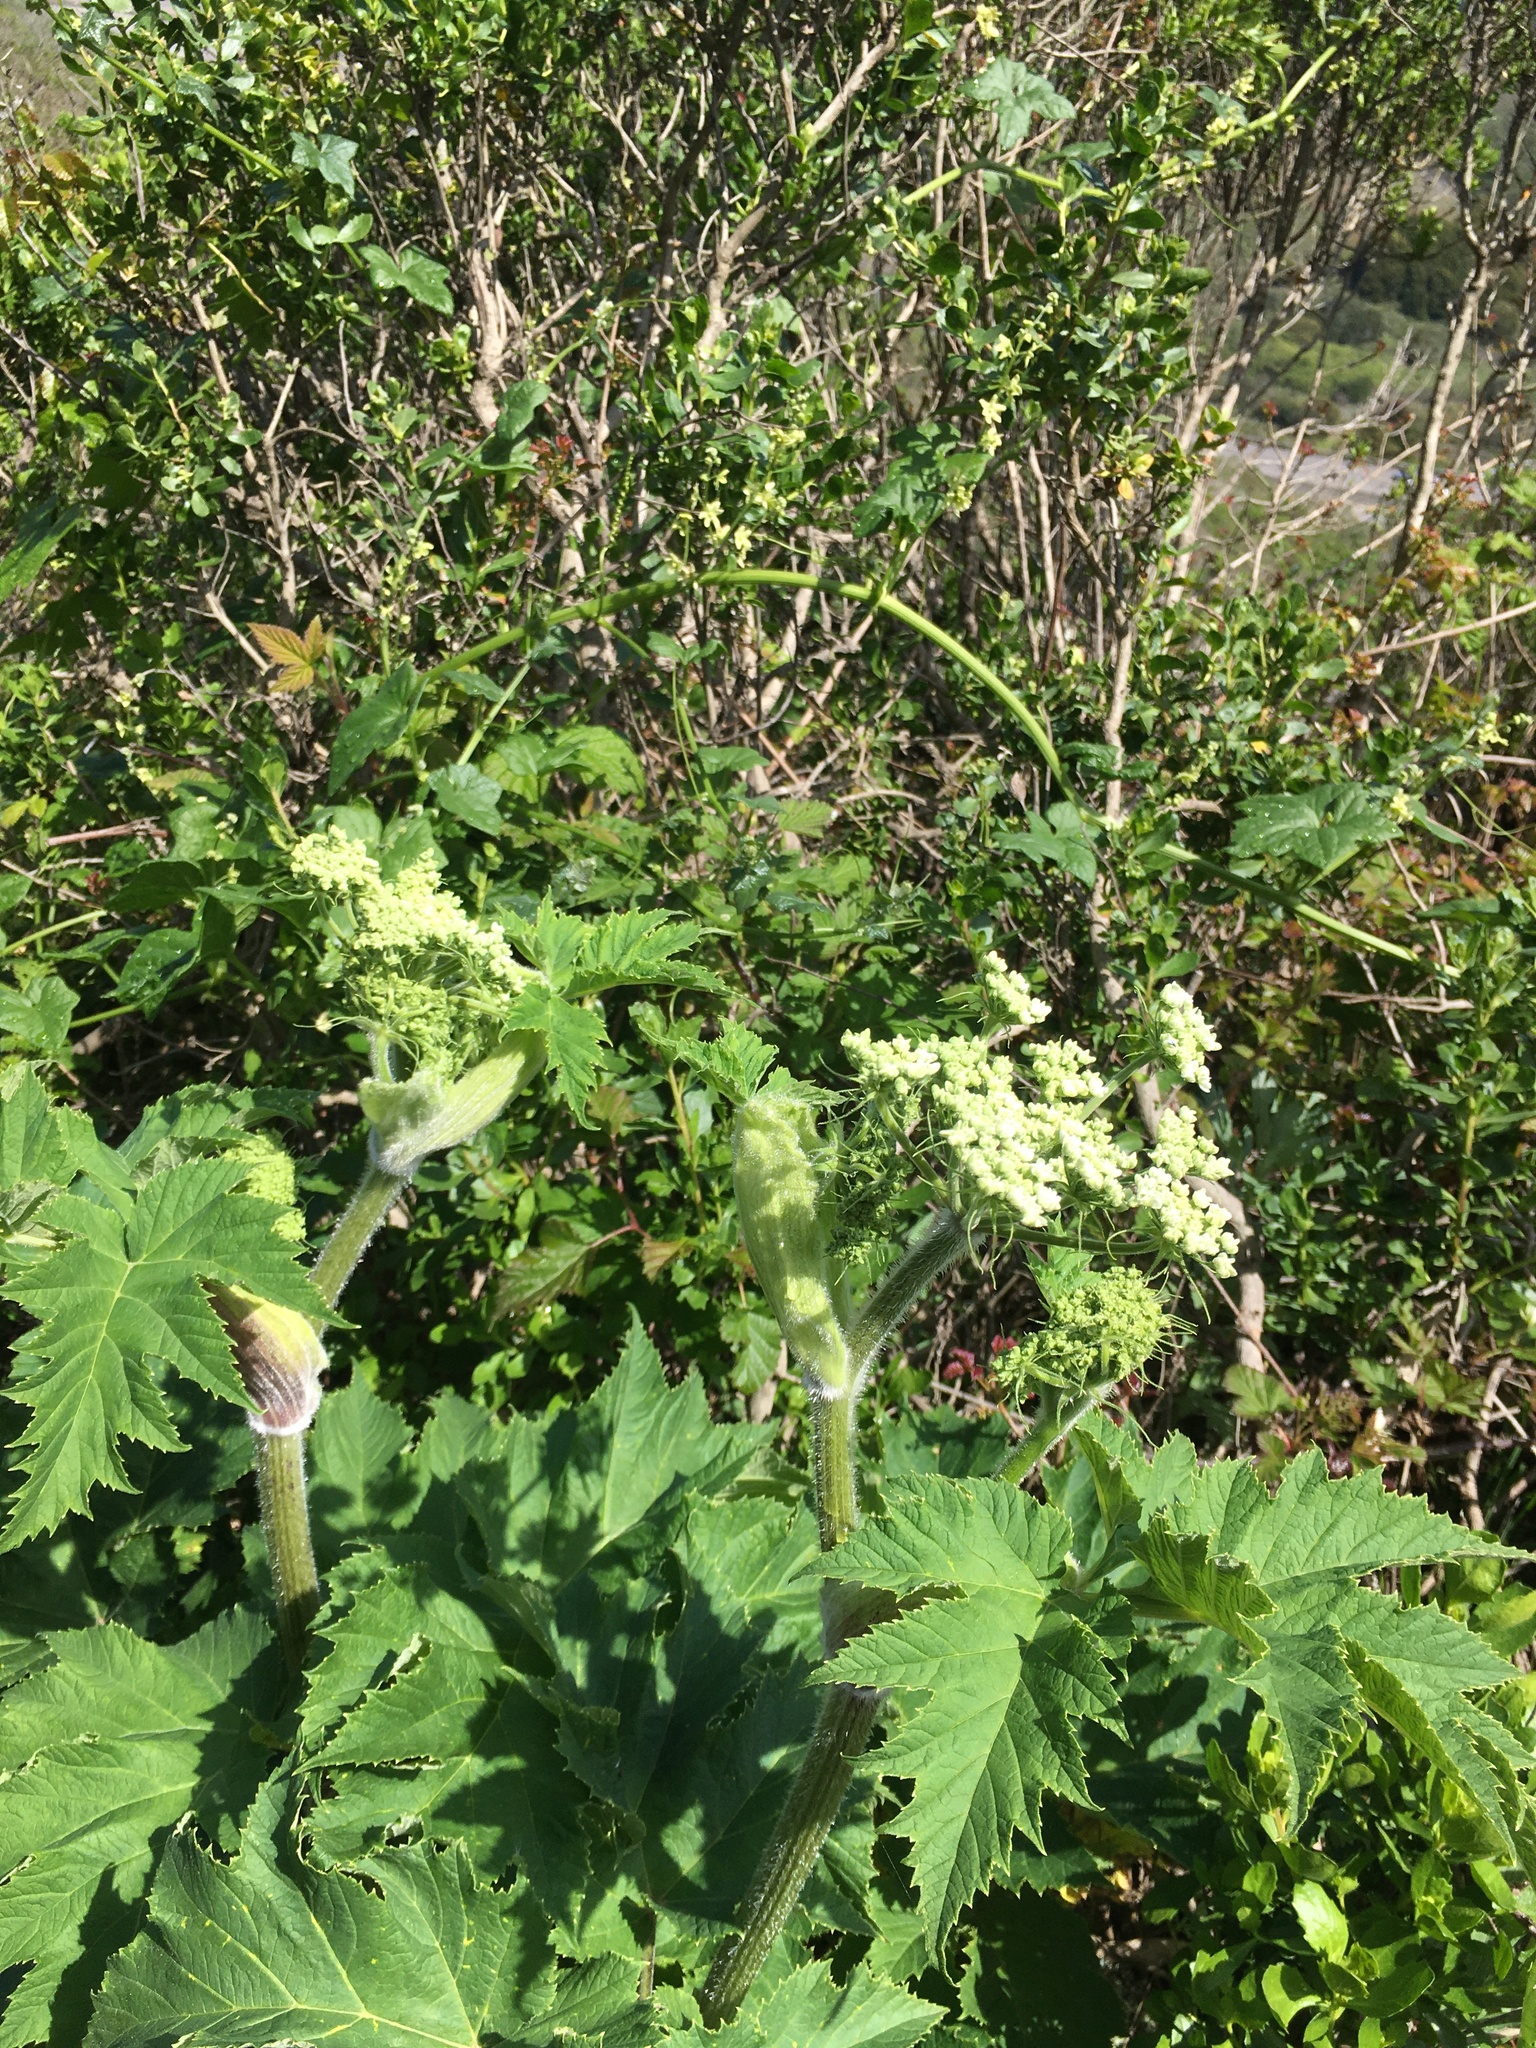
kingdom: Plantae
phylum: Tracheophyta
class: Magnoliopsida
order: Apiales
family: Apiaceae
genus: Heracleum
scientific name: Heracleum maximum
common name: American cow parsnip
